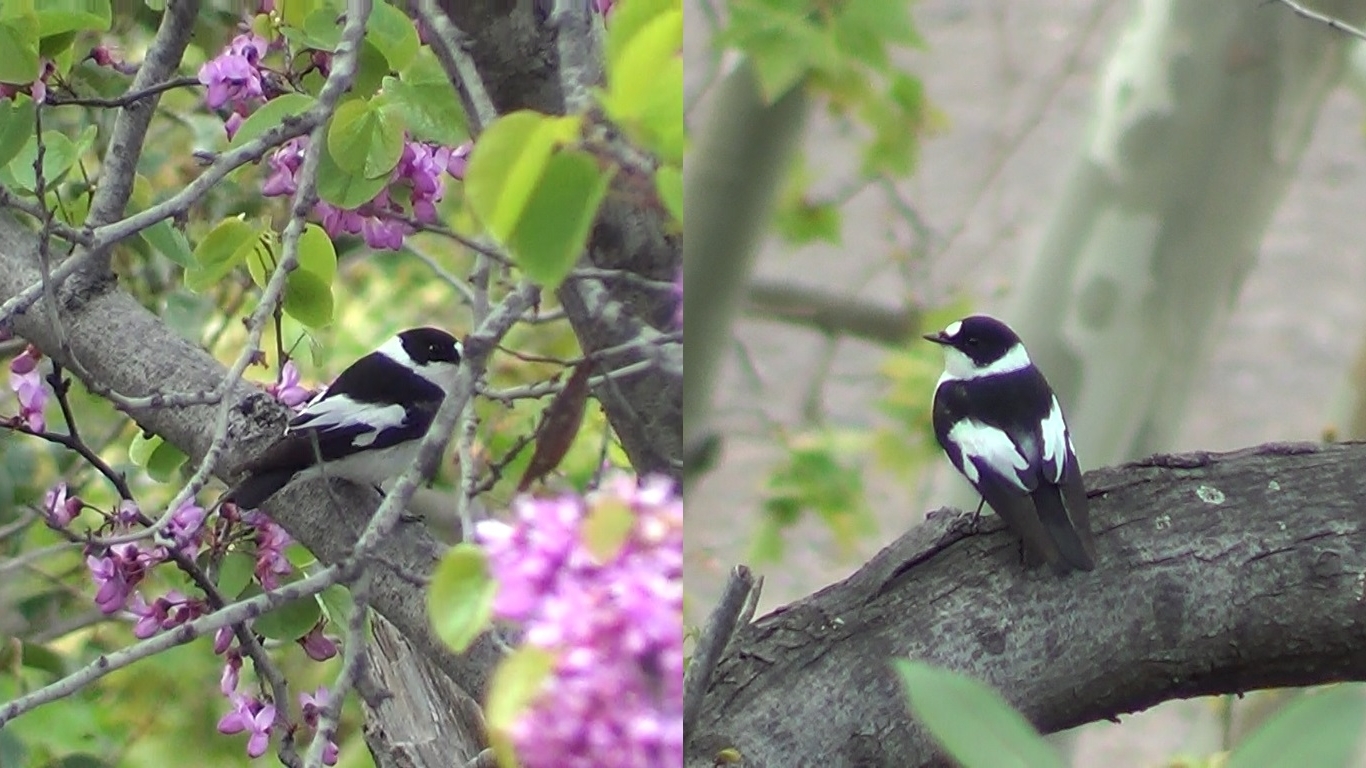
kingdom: Animalia
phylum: Chordata
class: Aves
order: Passeriformes
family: Muscicapidae
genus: Ficedula
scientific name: Ficedula albicollis
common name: Collared flycatcher
